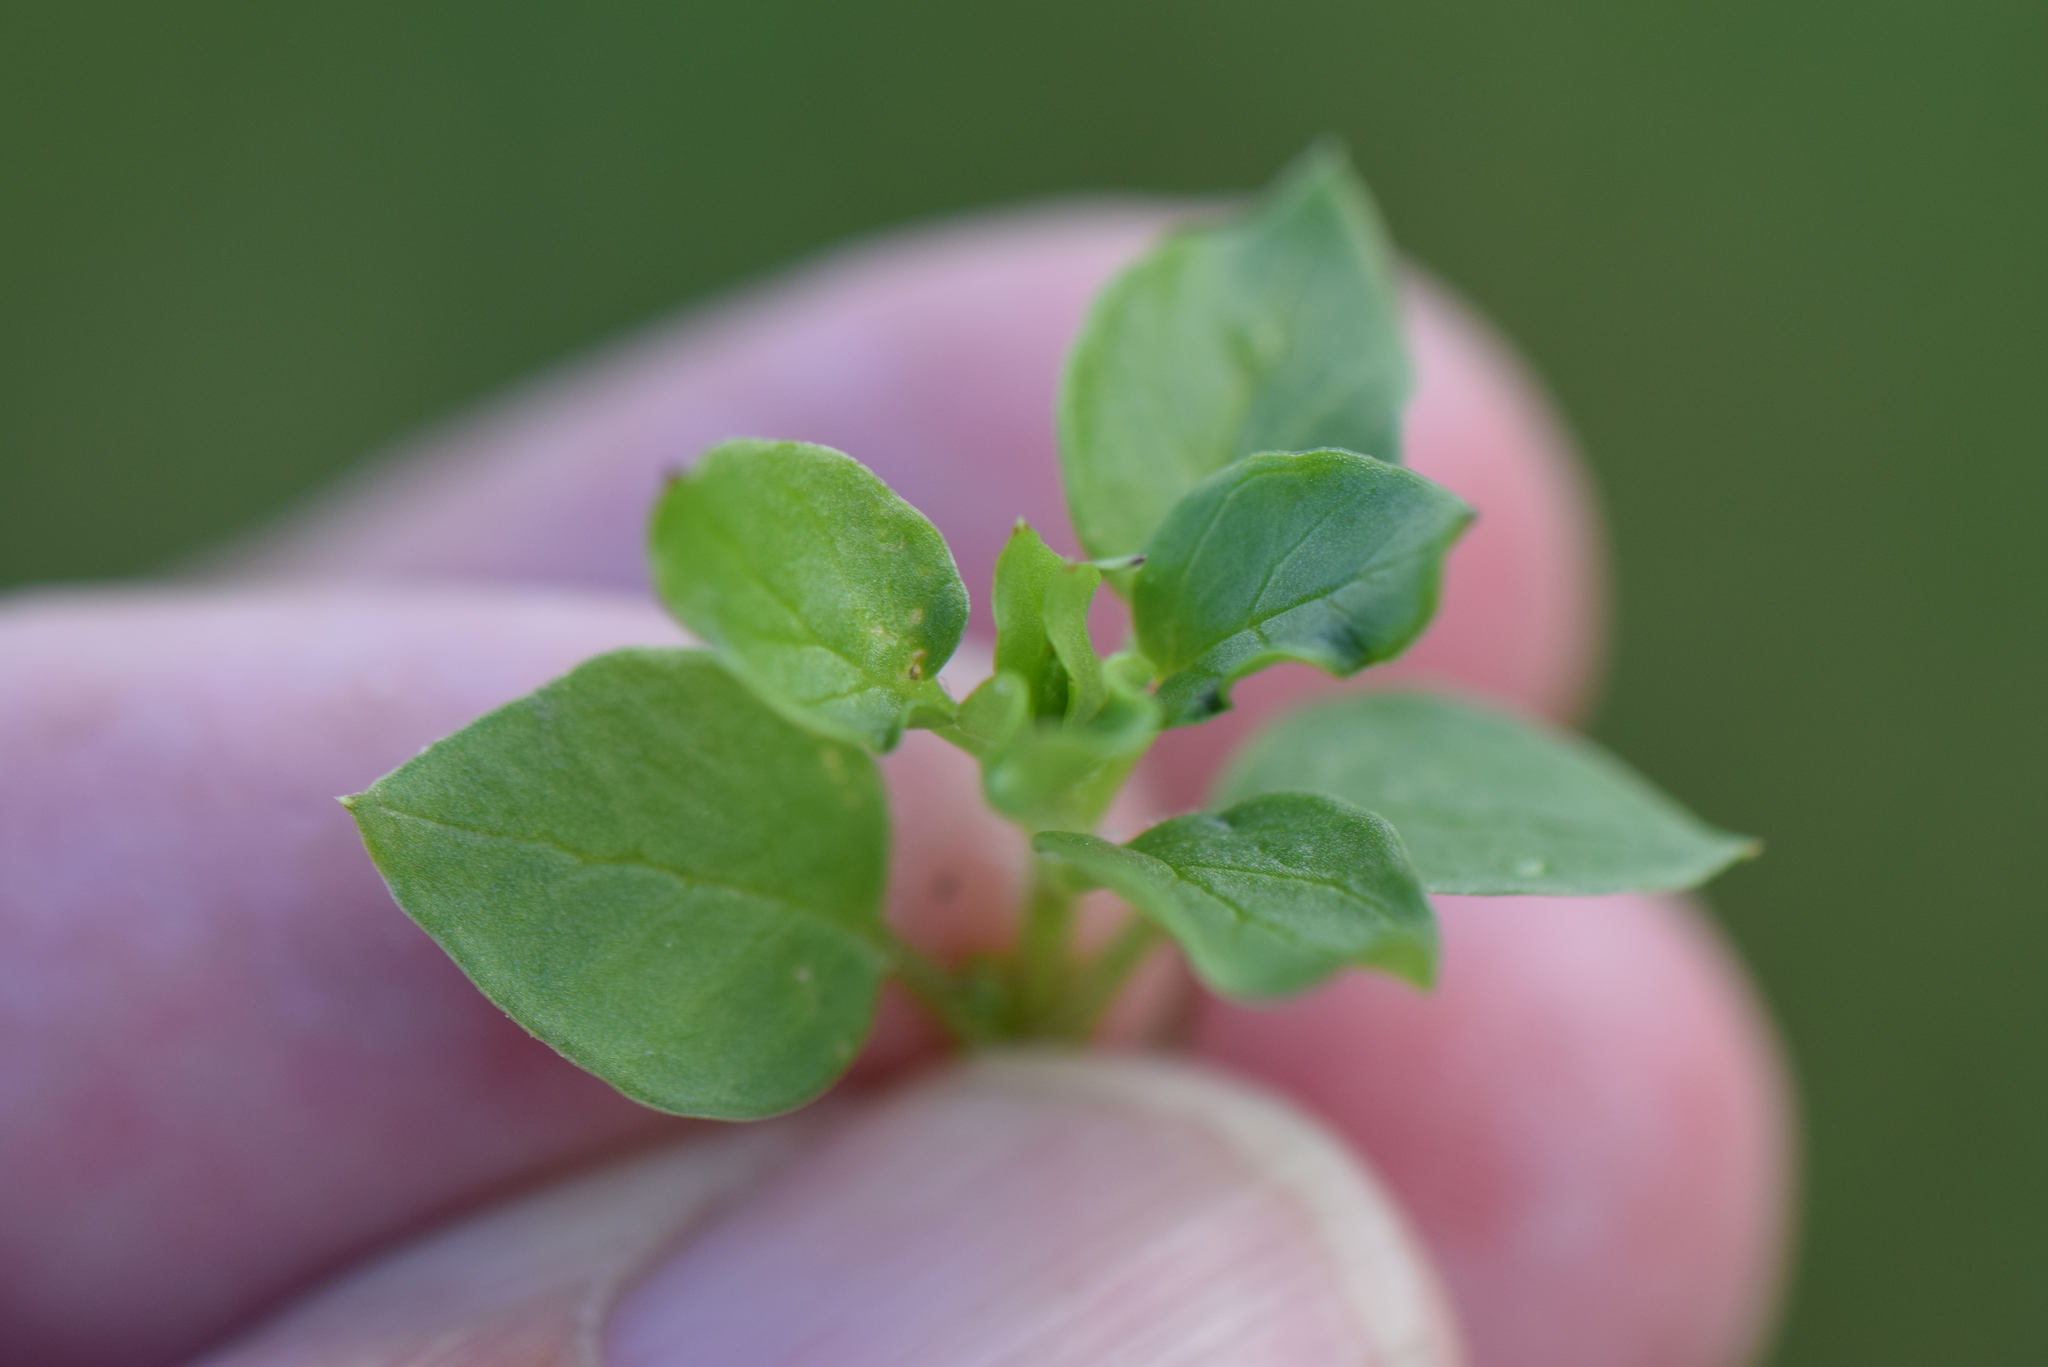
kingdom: Plantae
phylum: Tracheophyta
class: Magnoliopsida
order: Caryophyllales
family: Caryophyllaceae
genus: Stellaria
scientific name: Stellaria media
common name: Common chickweed
